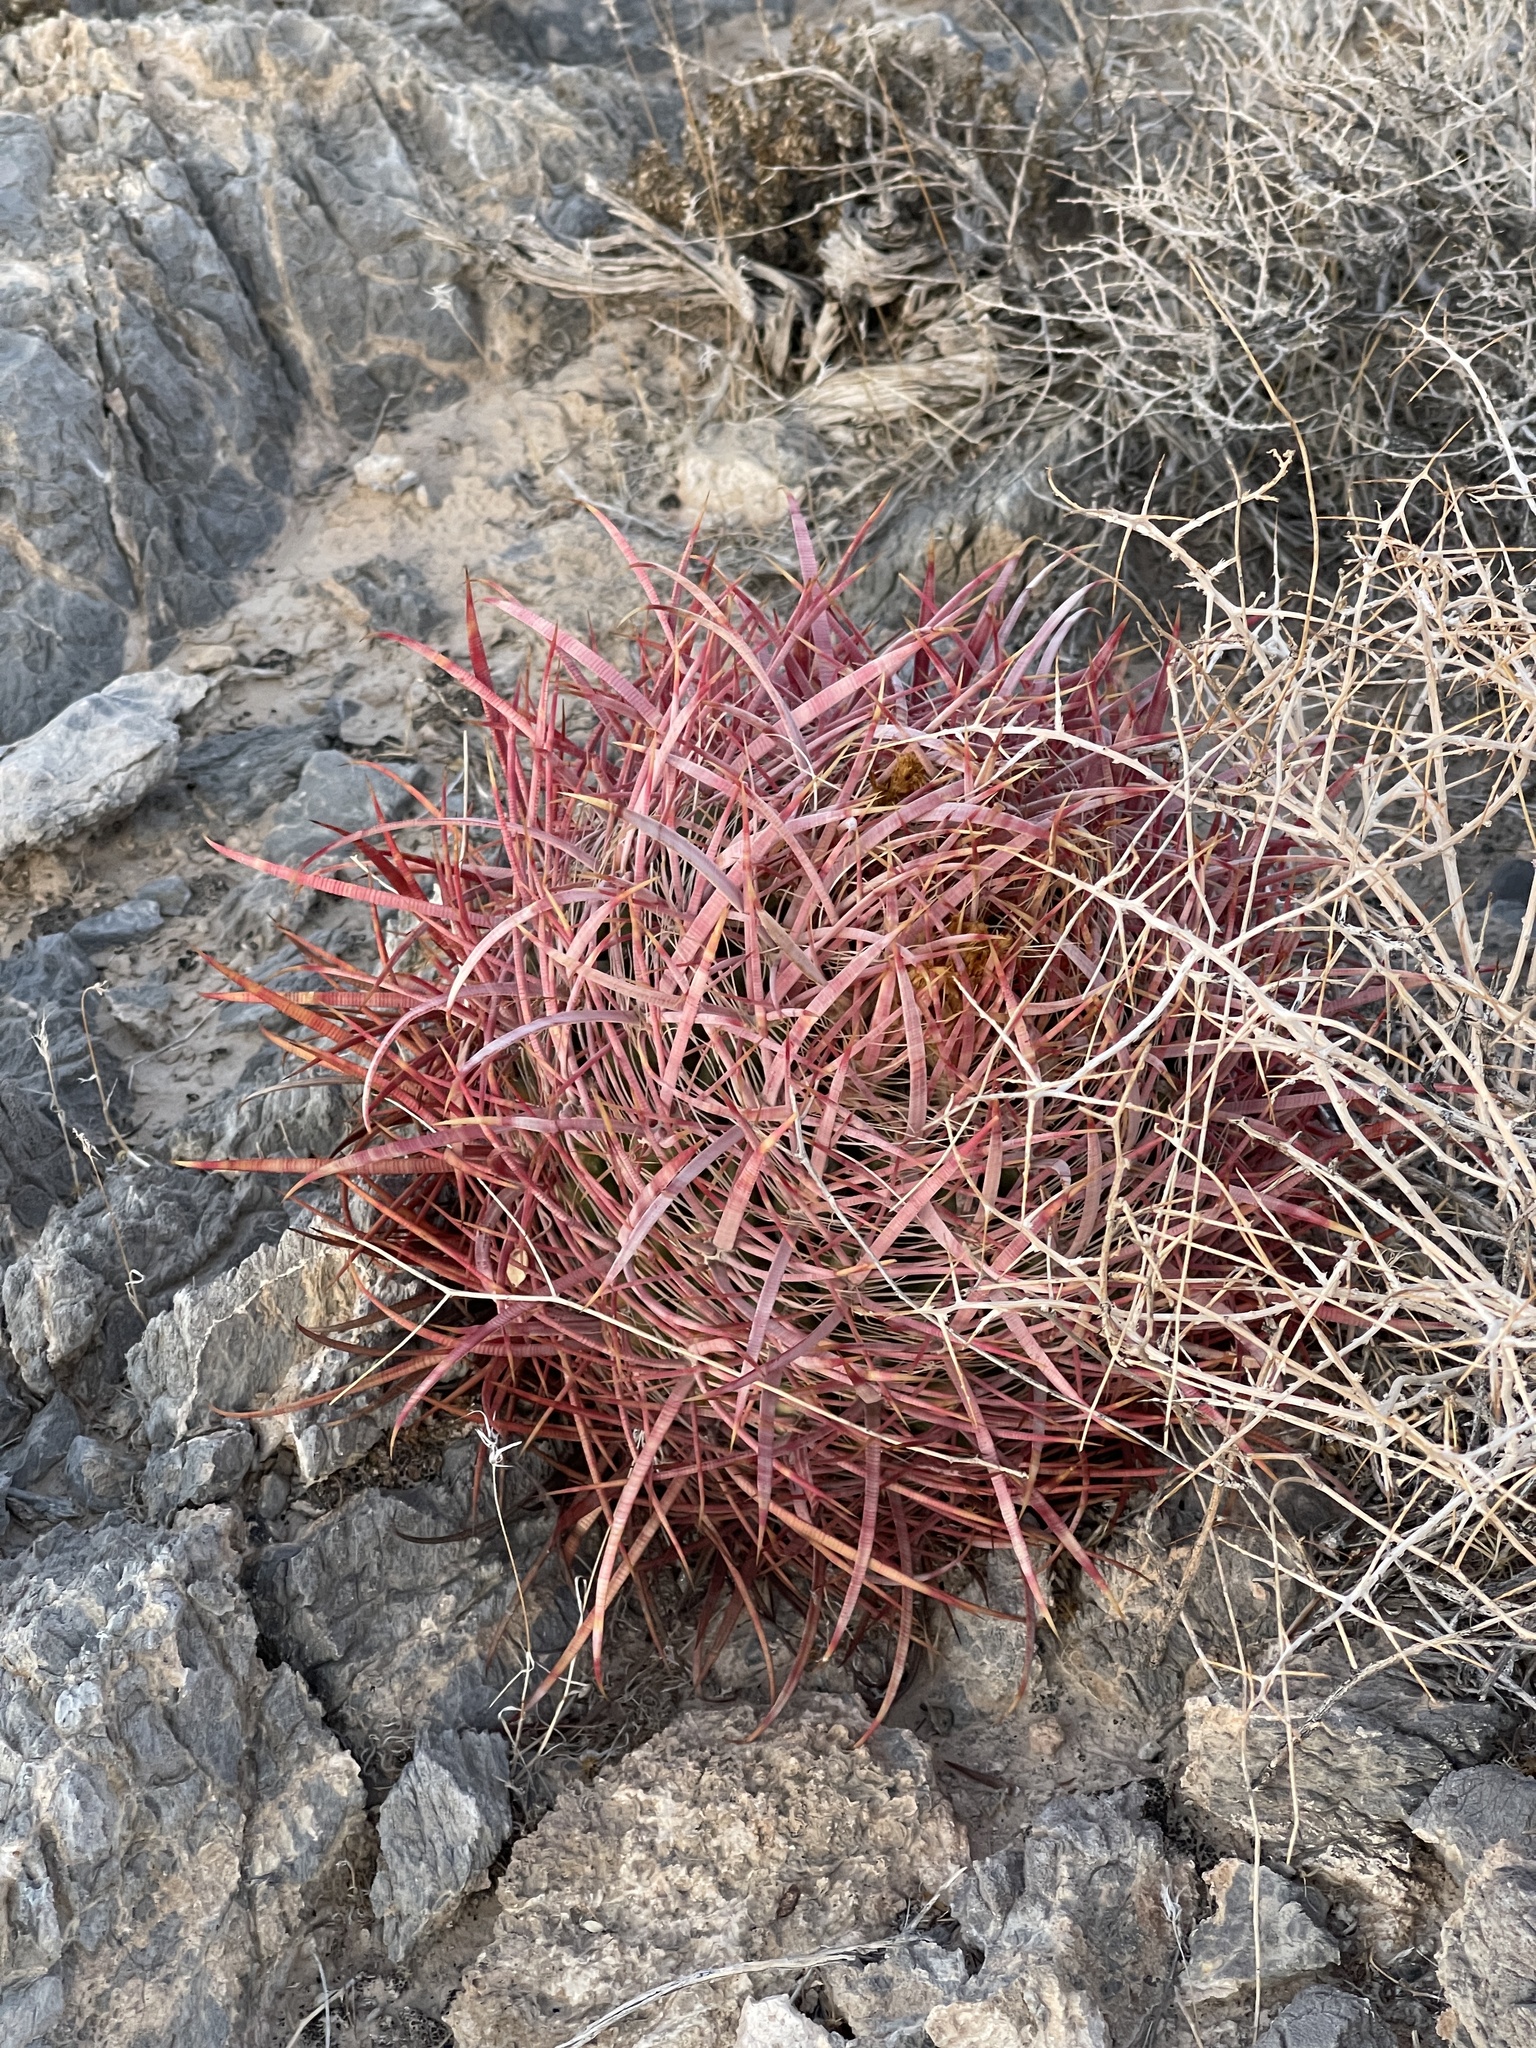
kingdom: Plantae
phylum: Tracheophyta
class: Magnoliopsida
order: Caryophyllales
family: Cactaceae
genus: Ferocactus
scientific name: Ferocactus cylindraceus
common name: California barrel cactus
